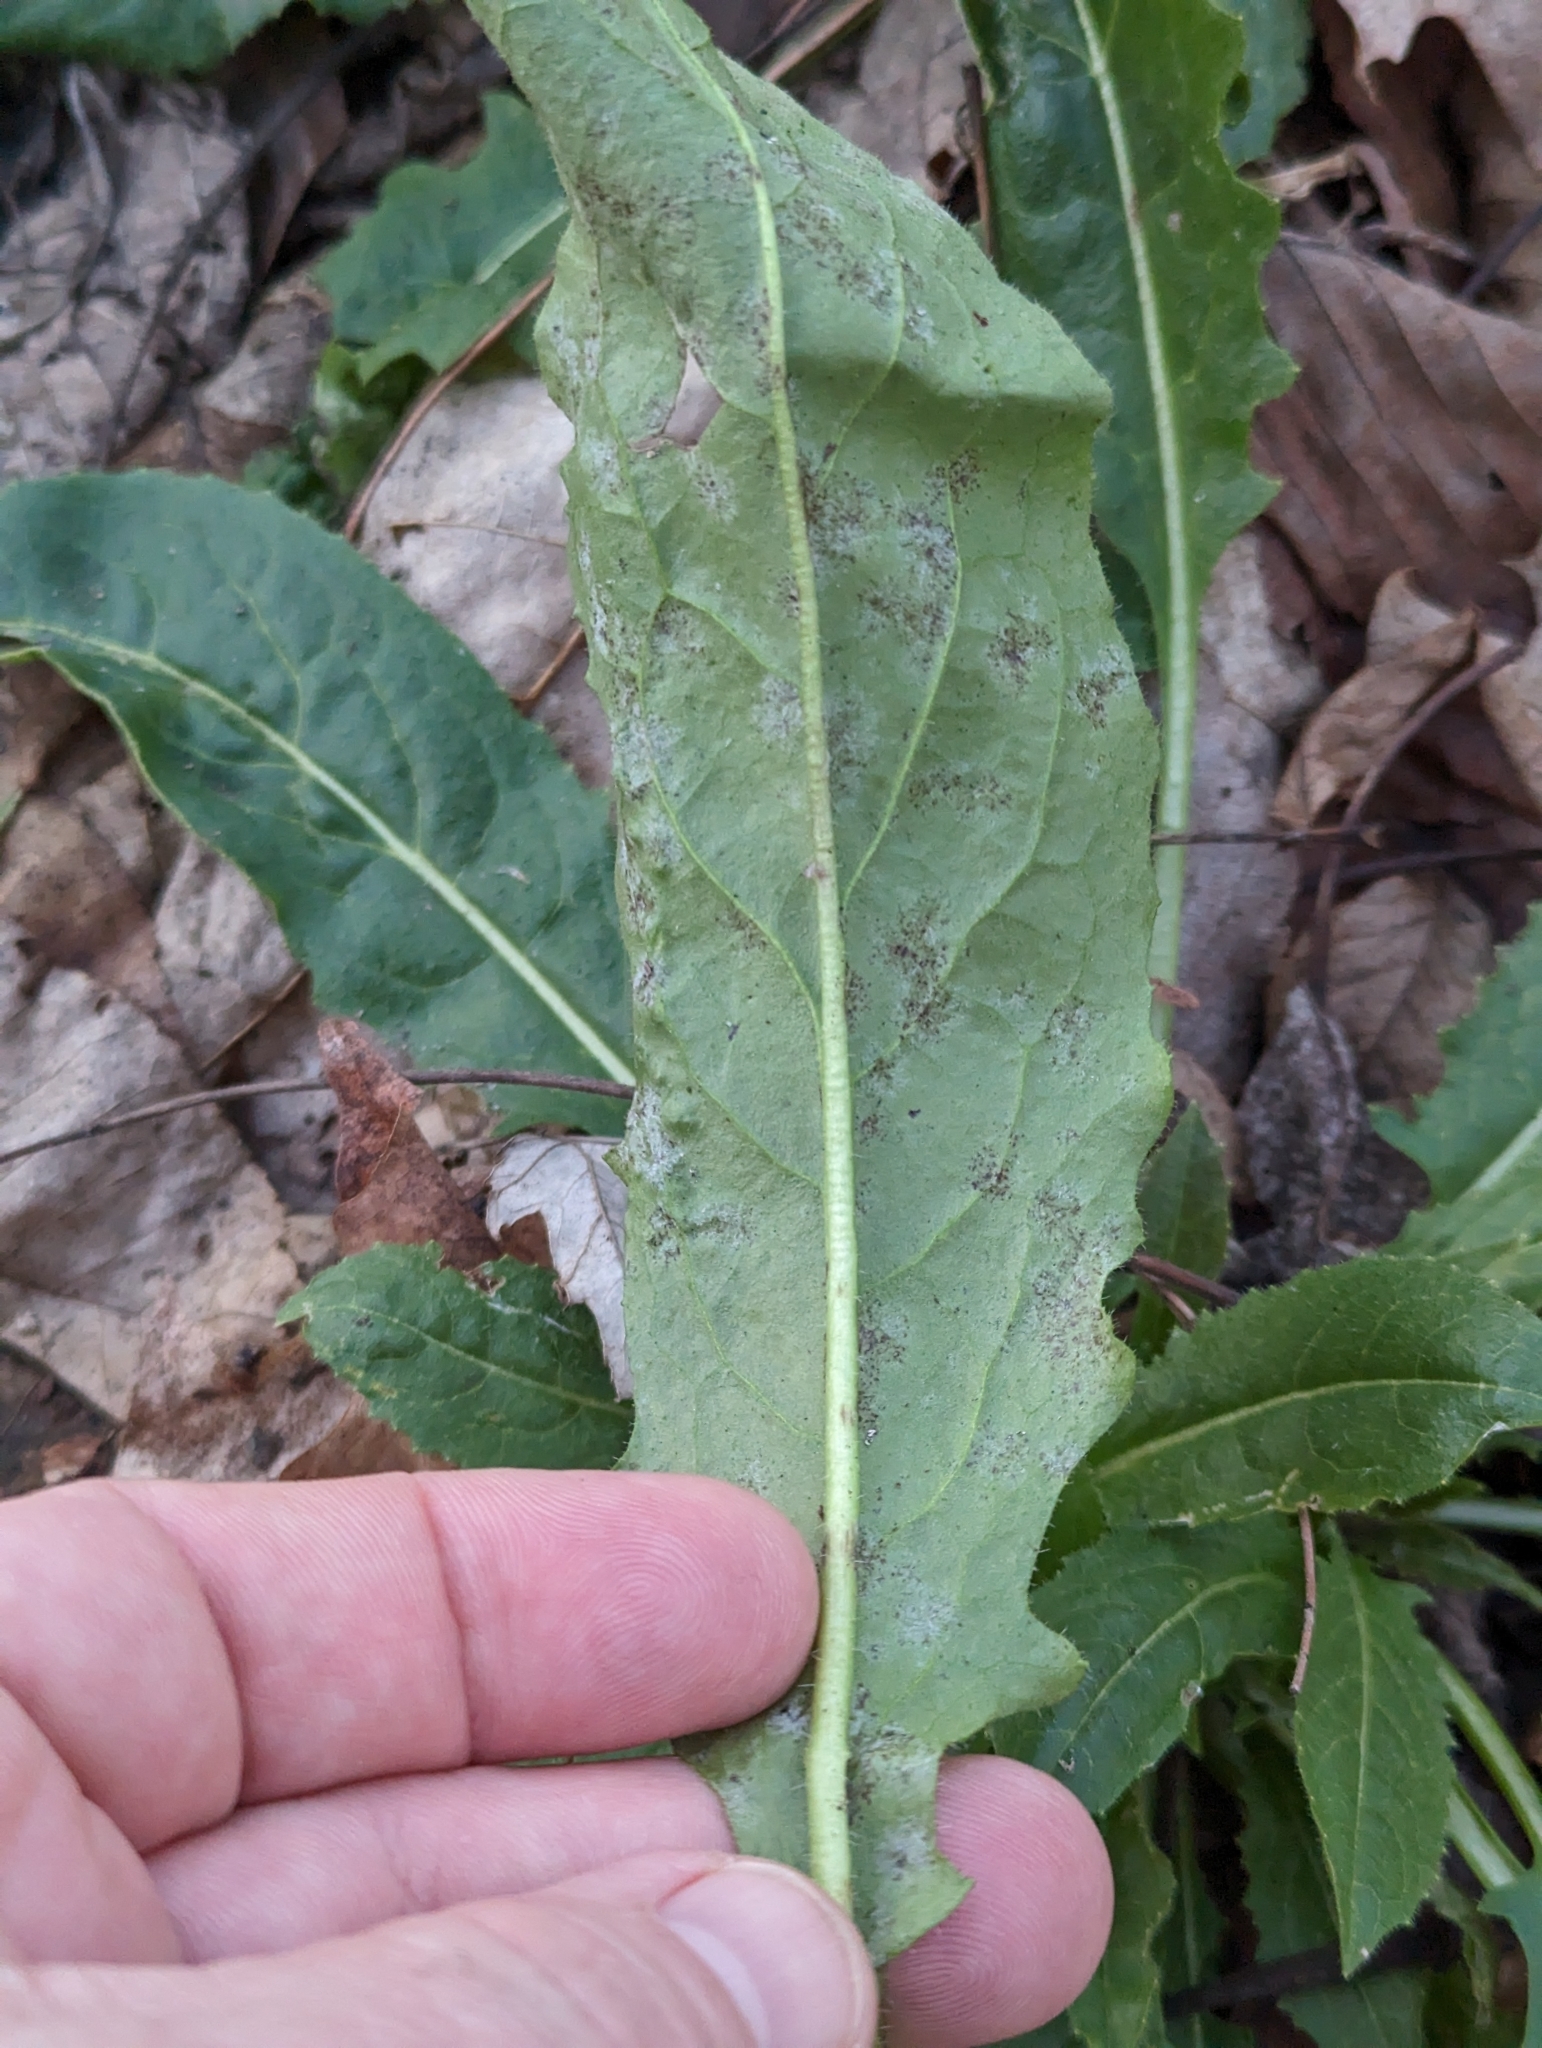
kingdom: Plantae
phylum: Tracheophyta
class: Magnoliopsida
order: Brassicales
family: Brassicaceae
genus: Hesperis
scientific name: Hesperis matronalis
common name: Dame's-violet
